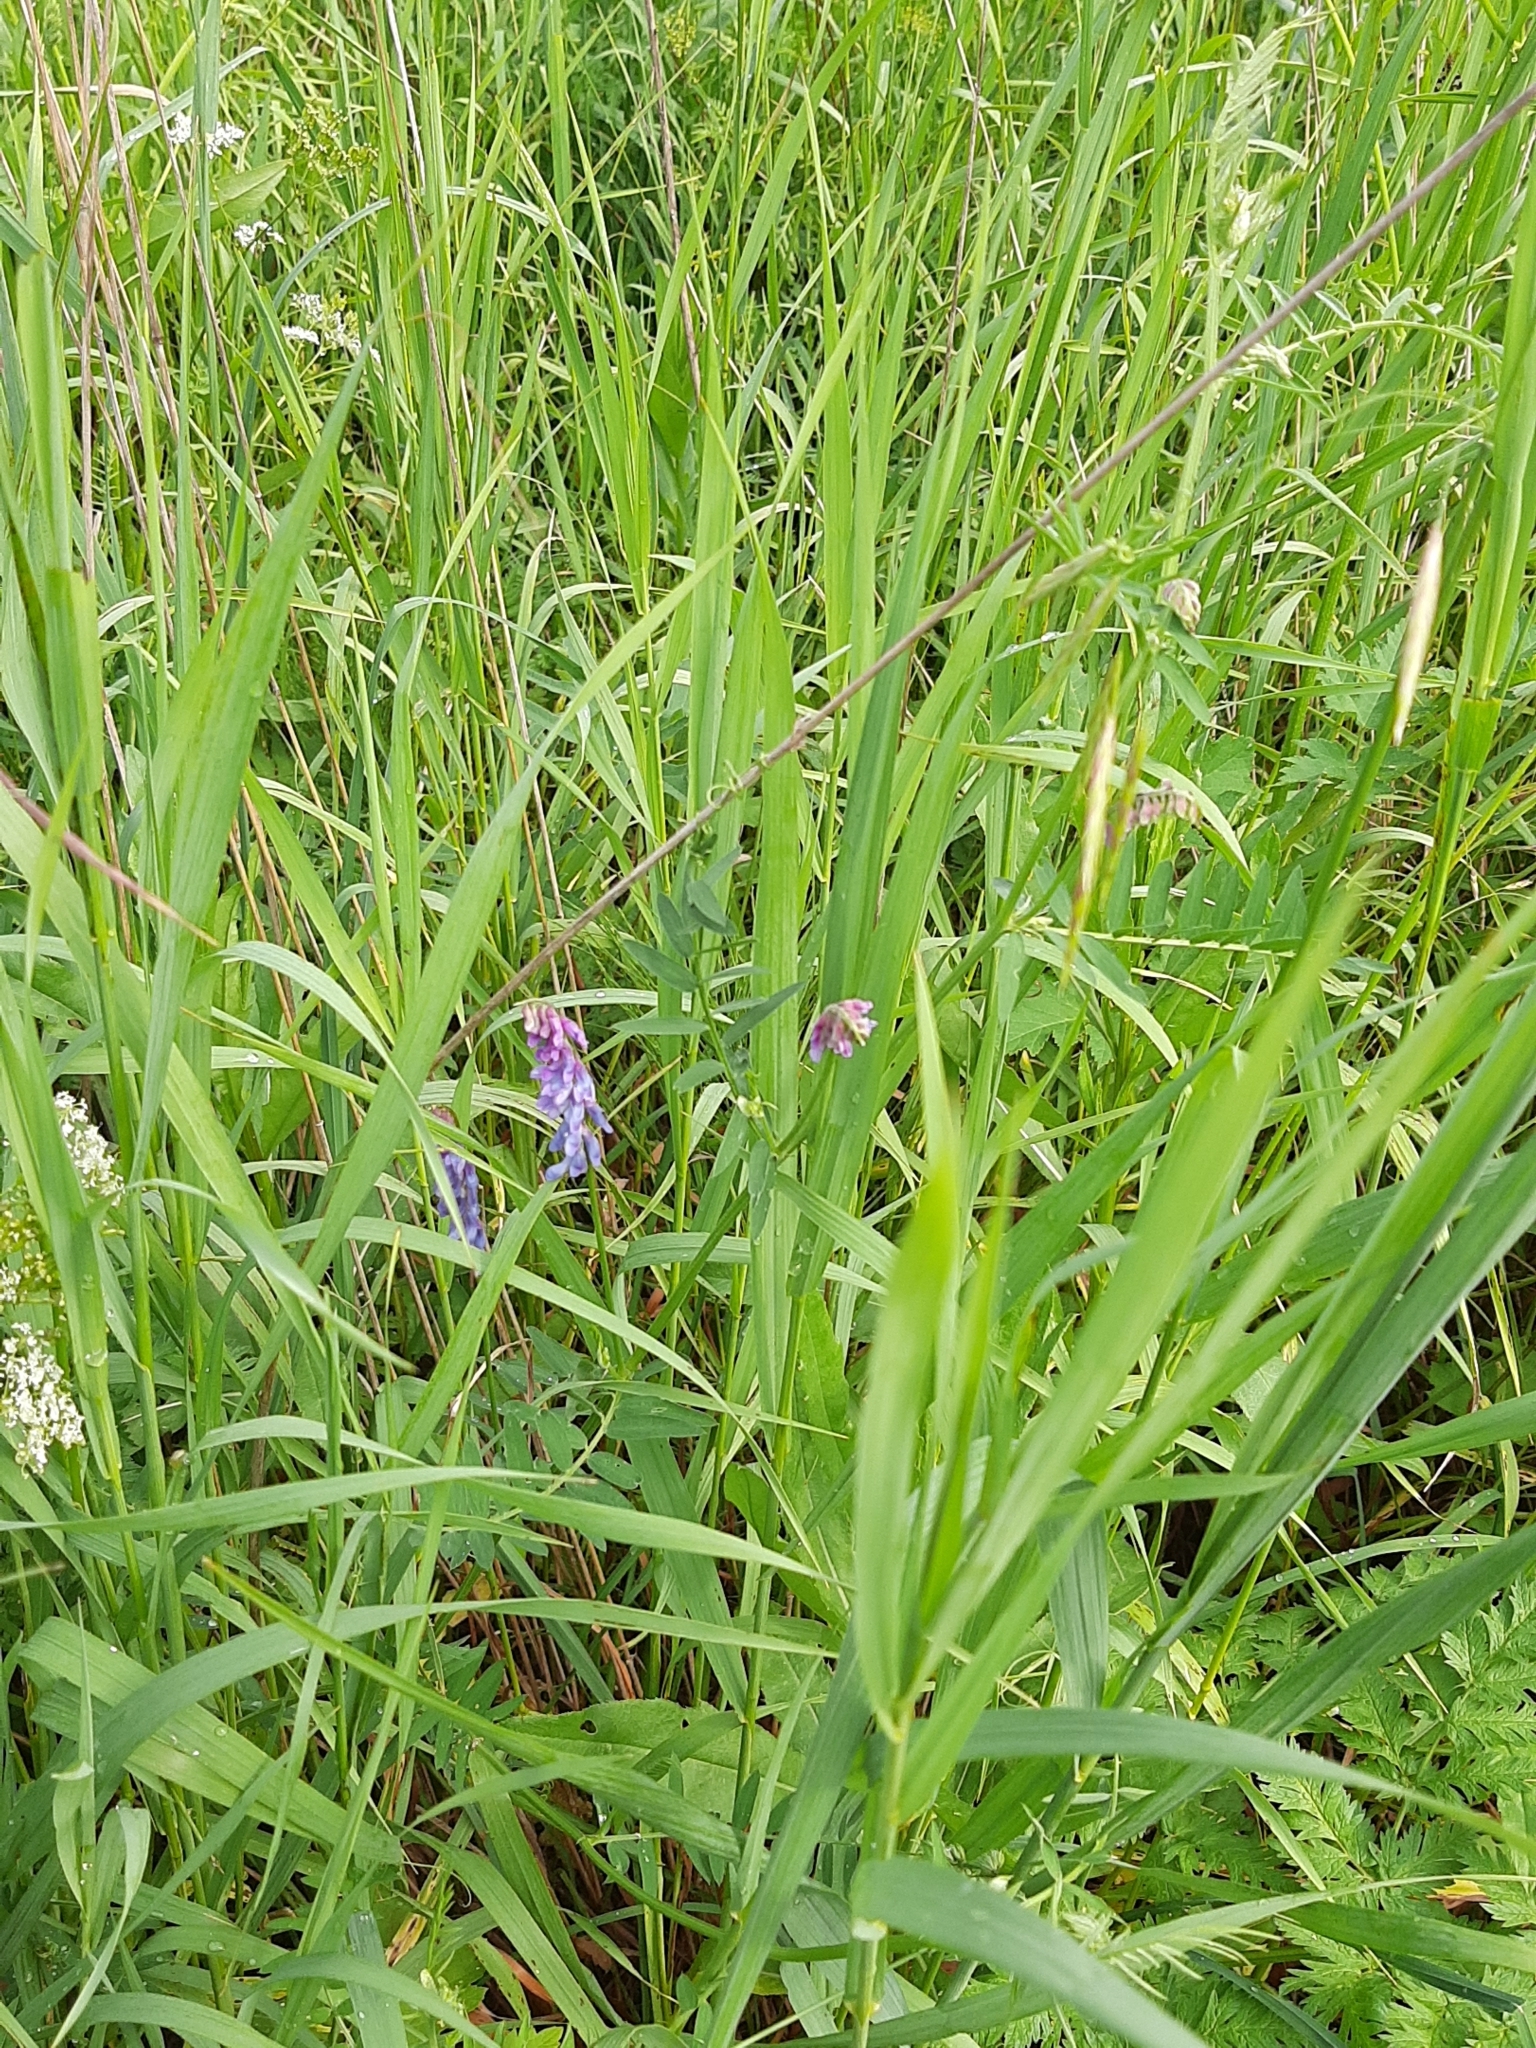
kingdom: Plantae
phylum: Tracheophyta
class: Magnoliopsida
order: Fabales
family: Fabaceae
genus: Vicia
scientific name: Vicia cracca
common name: Bird vetch
